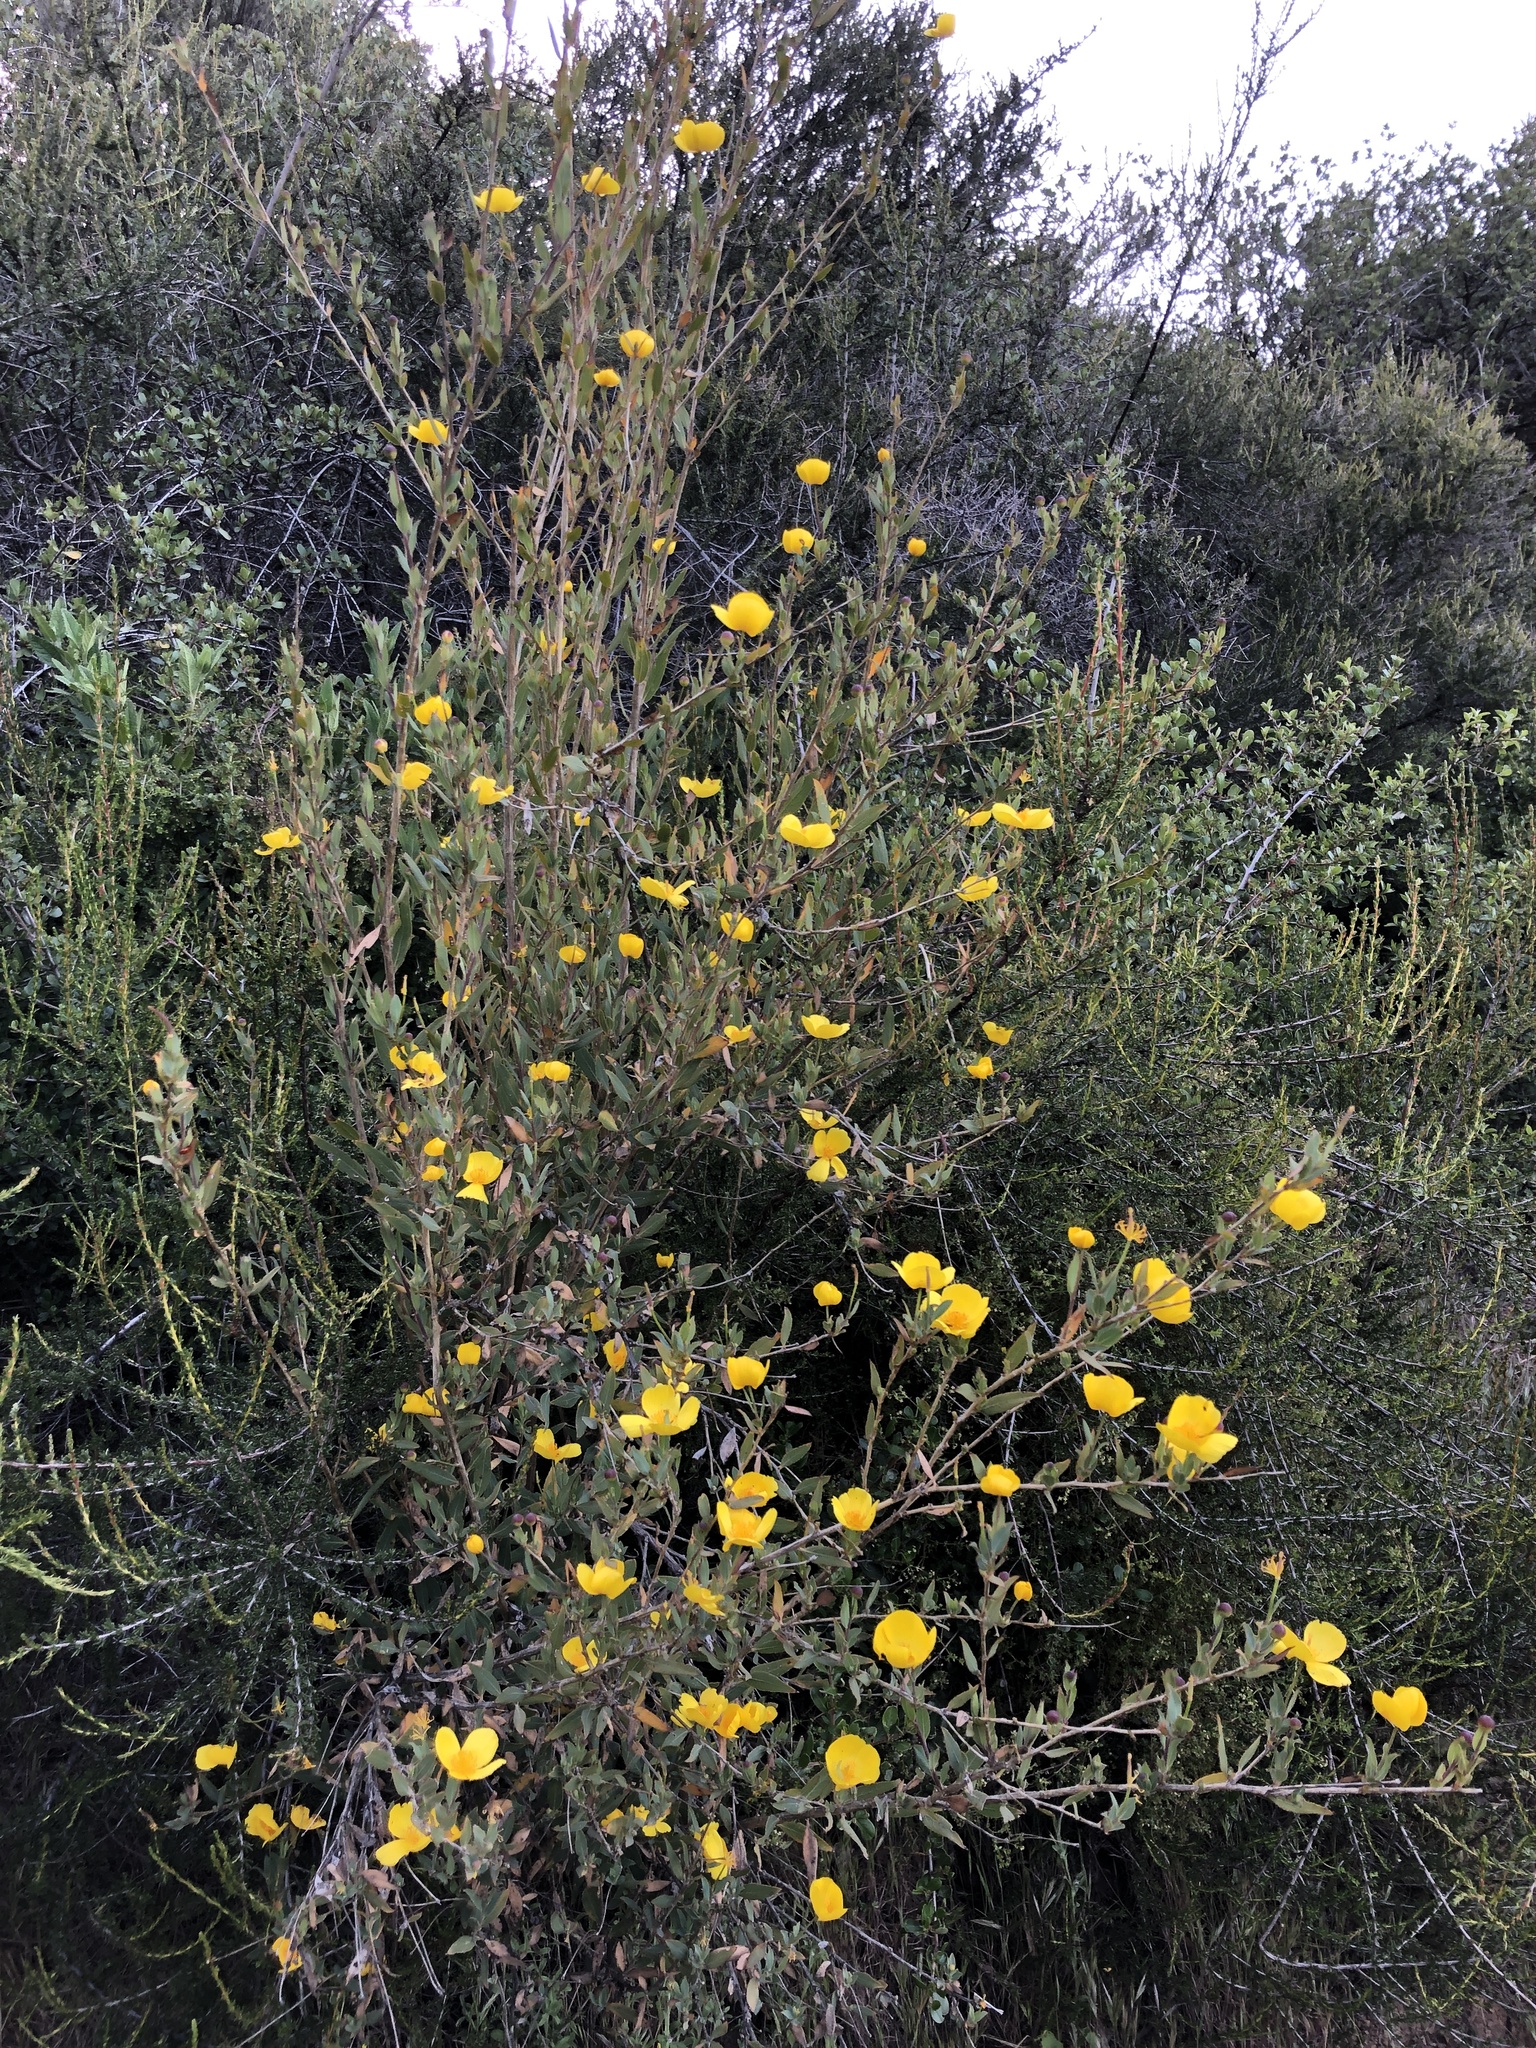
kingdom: Plantae
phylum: Tracheophyta
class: Magnoliopsida
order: Ranunculales
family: Papaveraceae
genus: Dendromecon
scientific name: Dendromecon rigida
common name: Tree poppy
